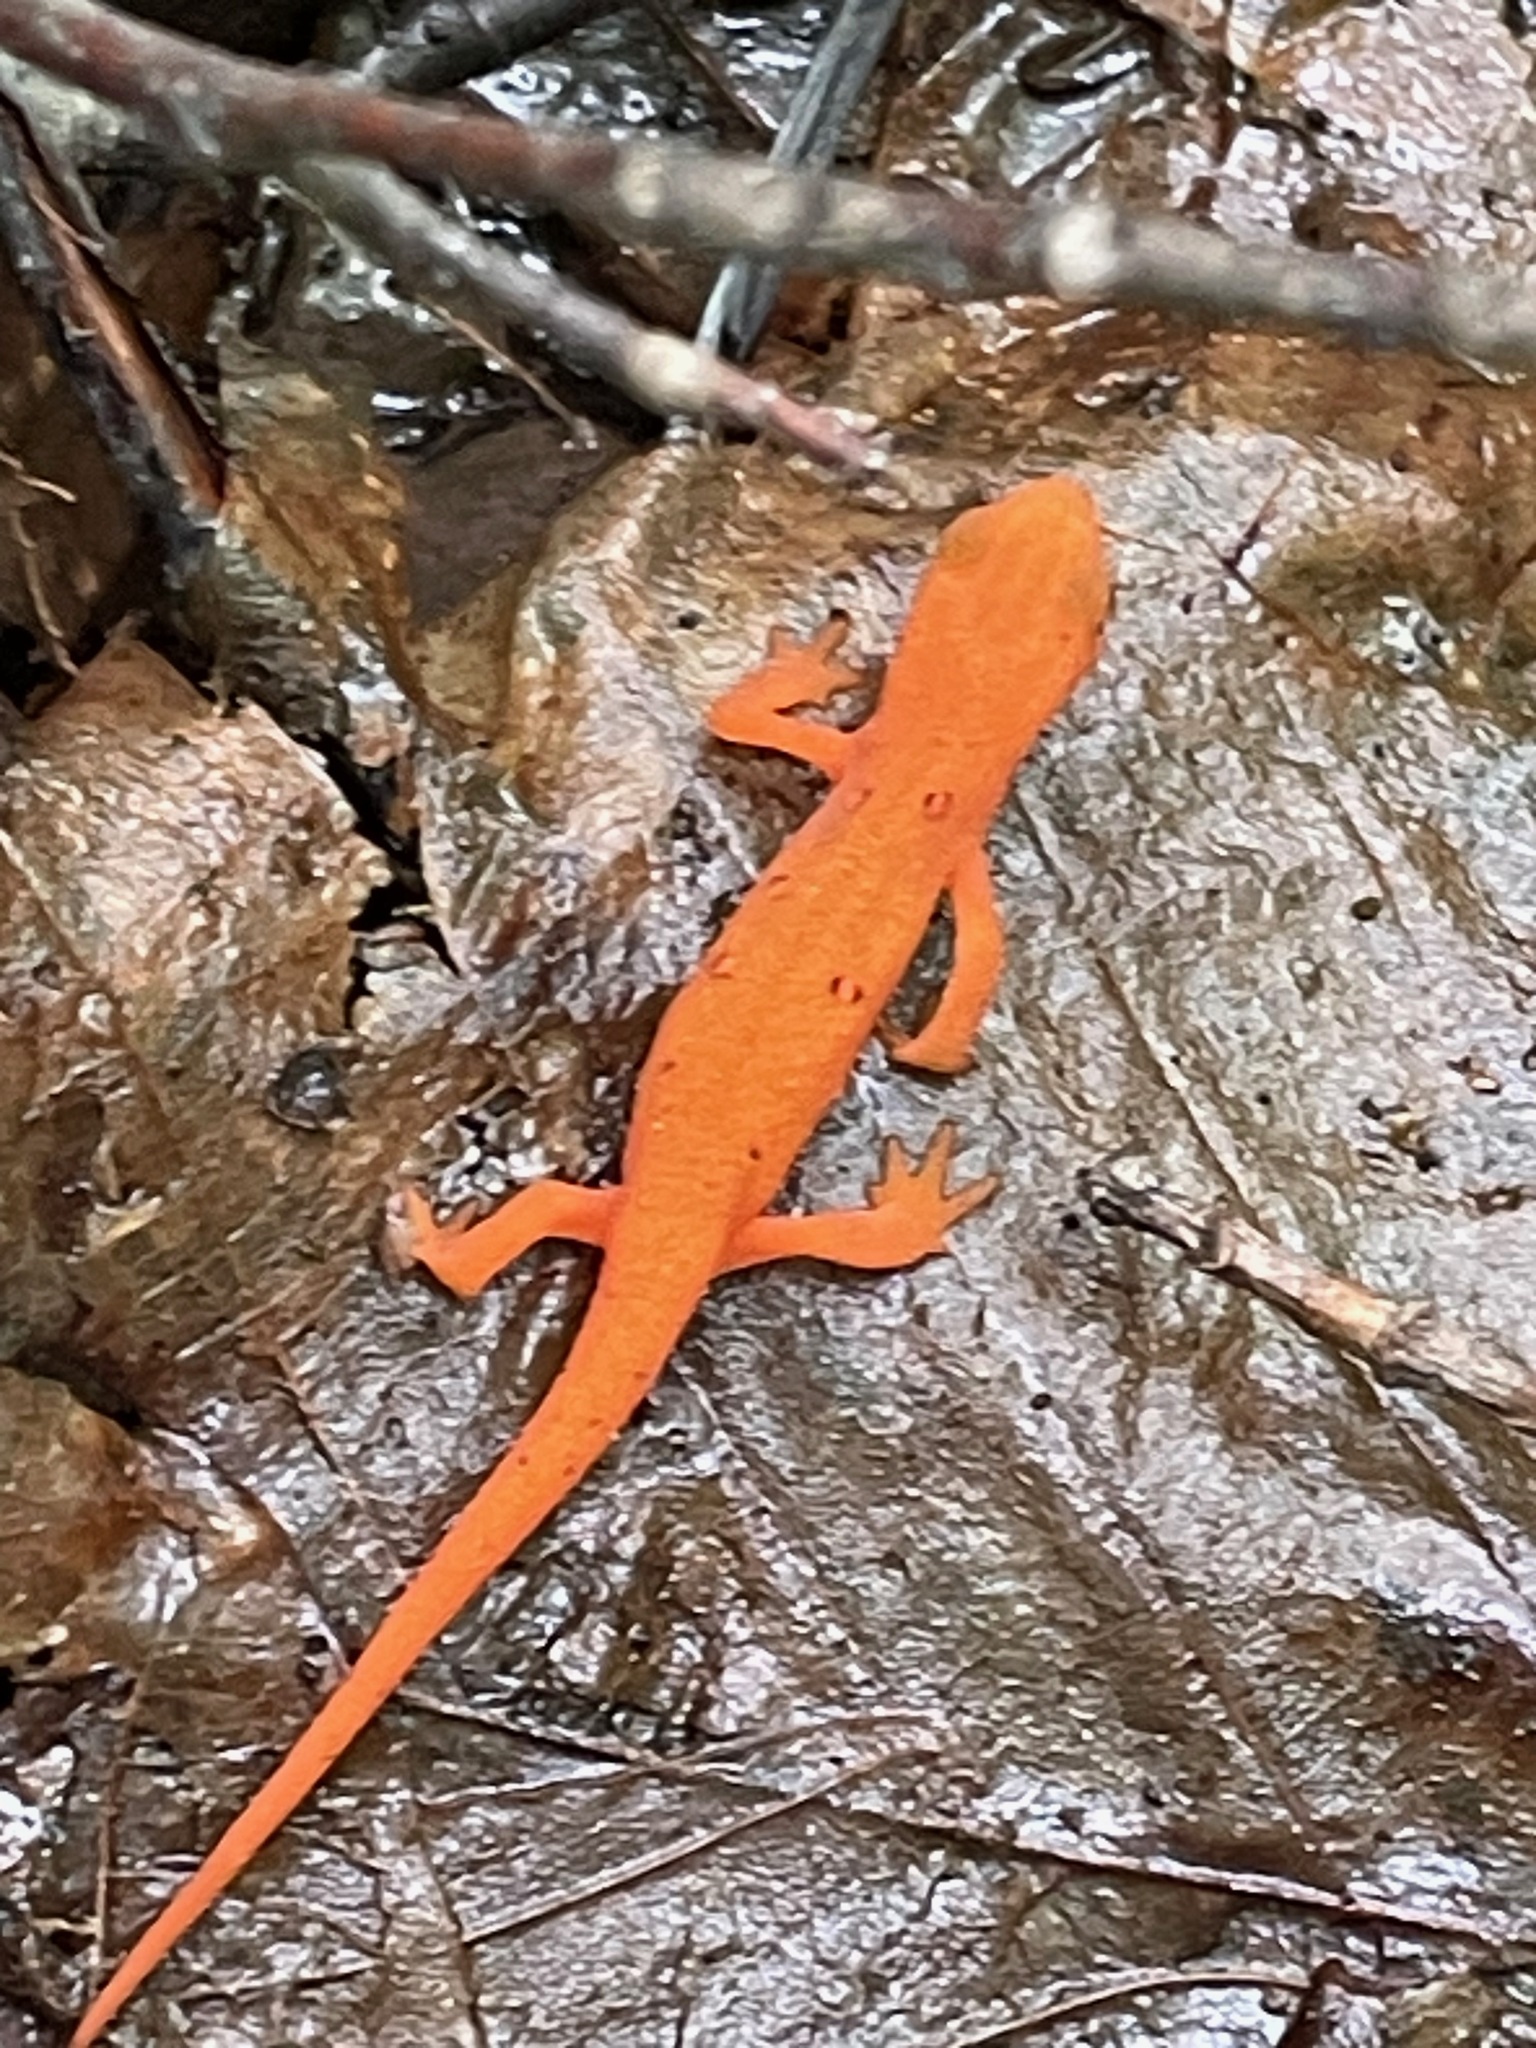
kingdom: Animalia
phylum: Chordata
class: Amphibia
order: Caudata
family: Salamandridae
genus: Notophthalmus
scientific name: Notophthalmus viridescens
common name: Eastern newt
